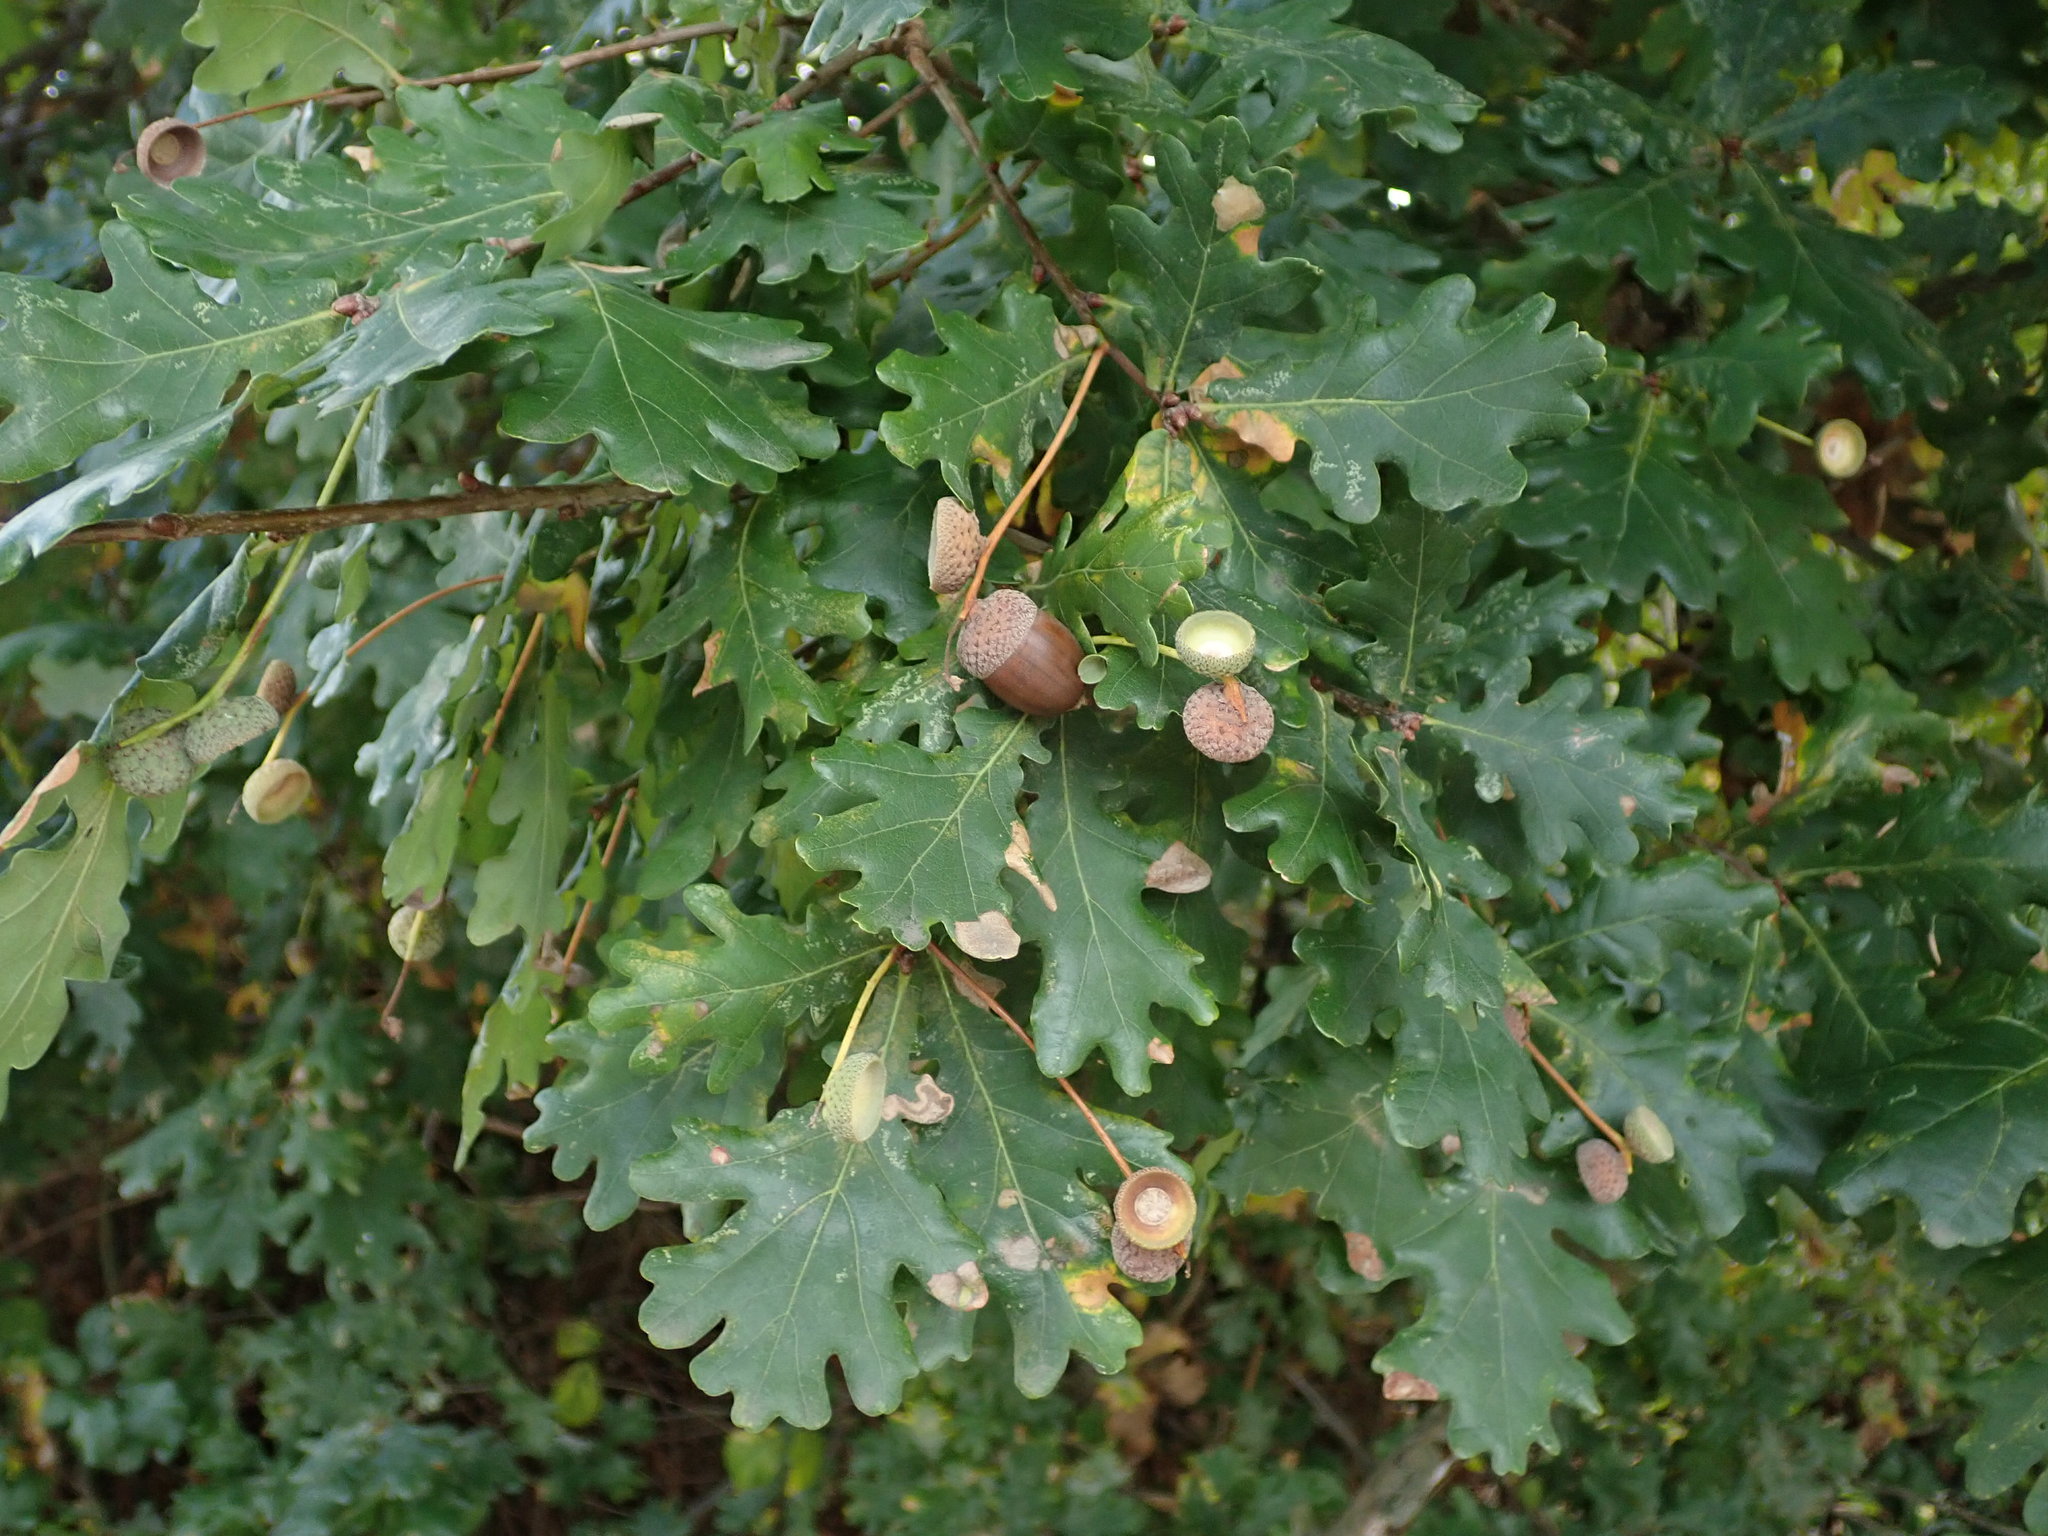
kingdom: Plantae
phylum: Tracheophyta
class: Magnoliopsida
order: Fagales
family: Fagaceae
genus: Quercus
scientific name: Quercus robur
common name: Pedunculate oak
